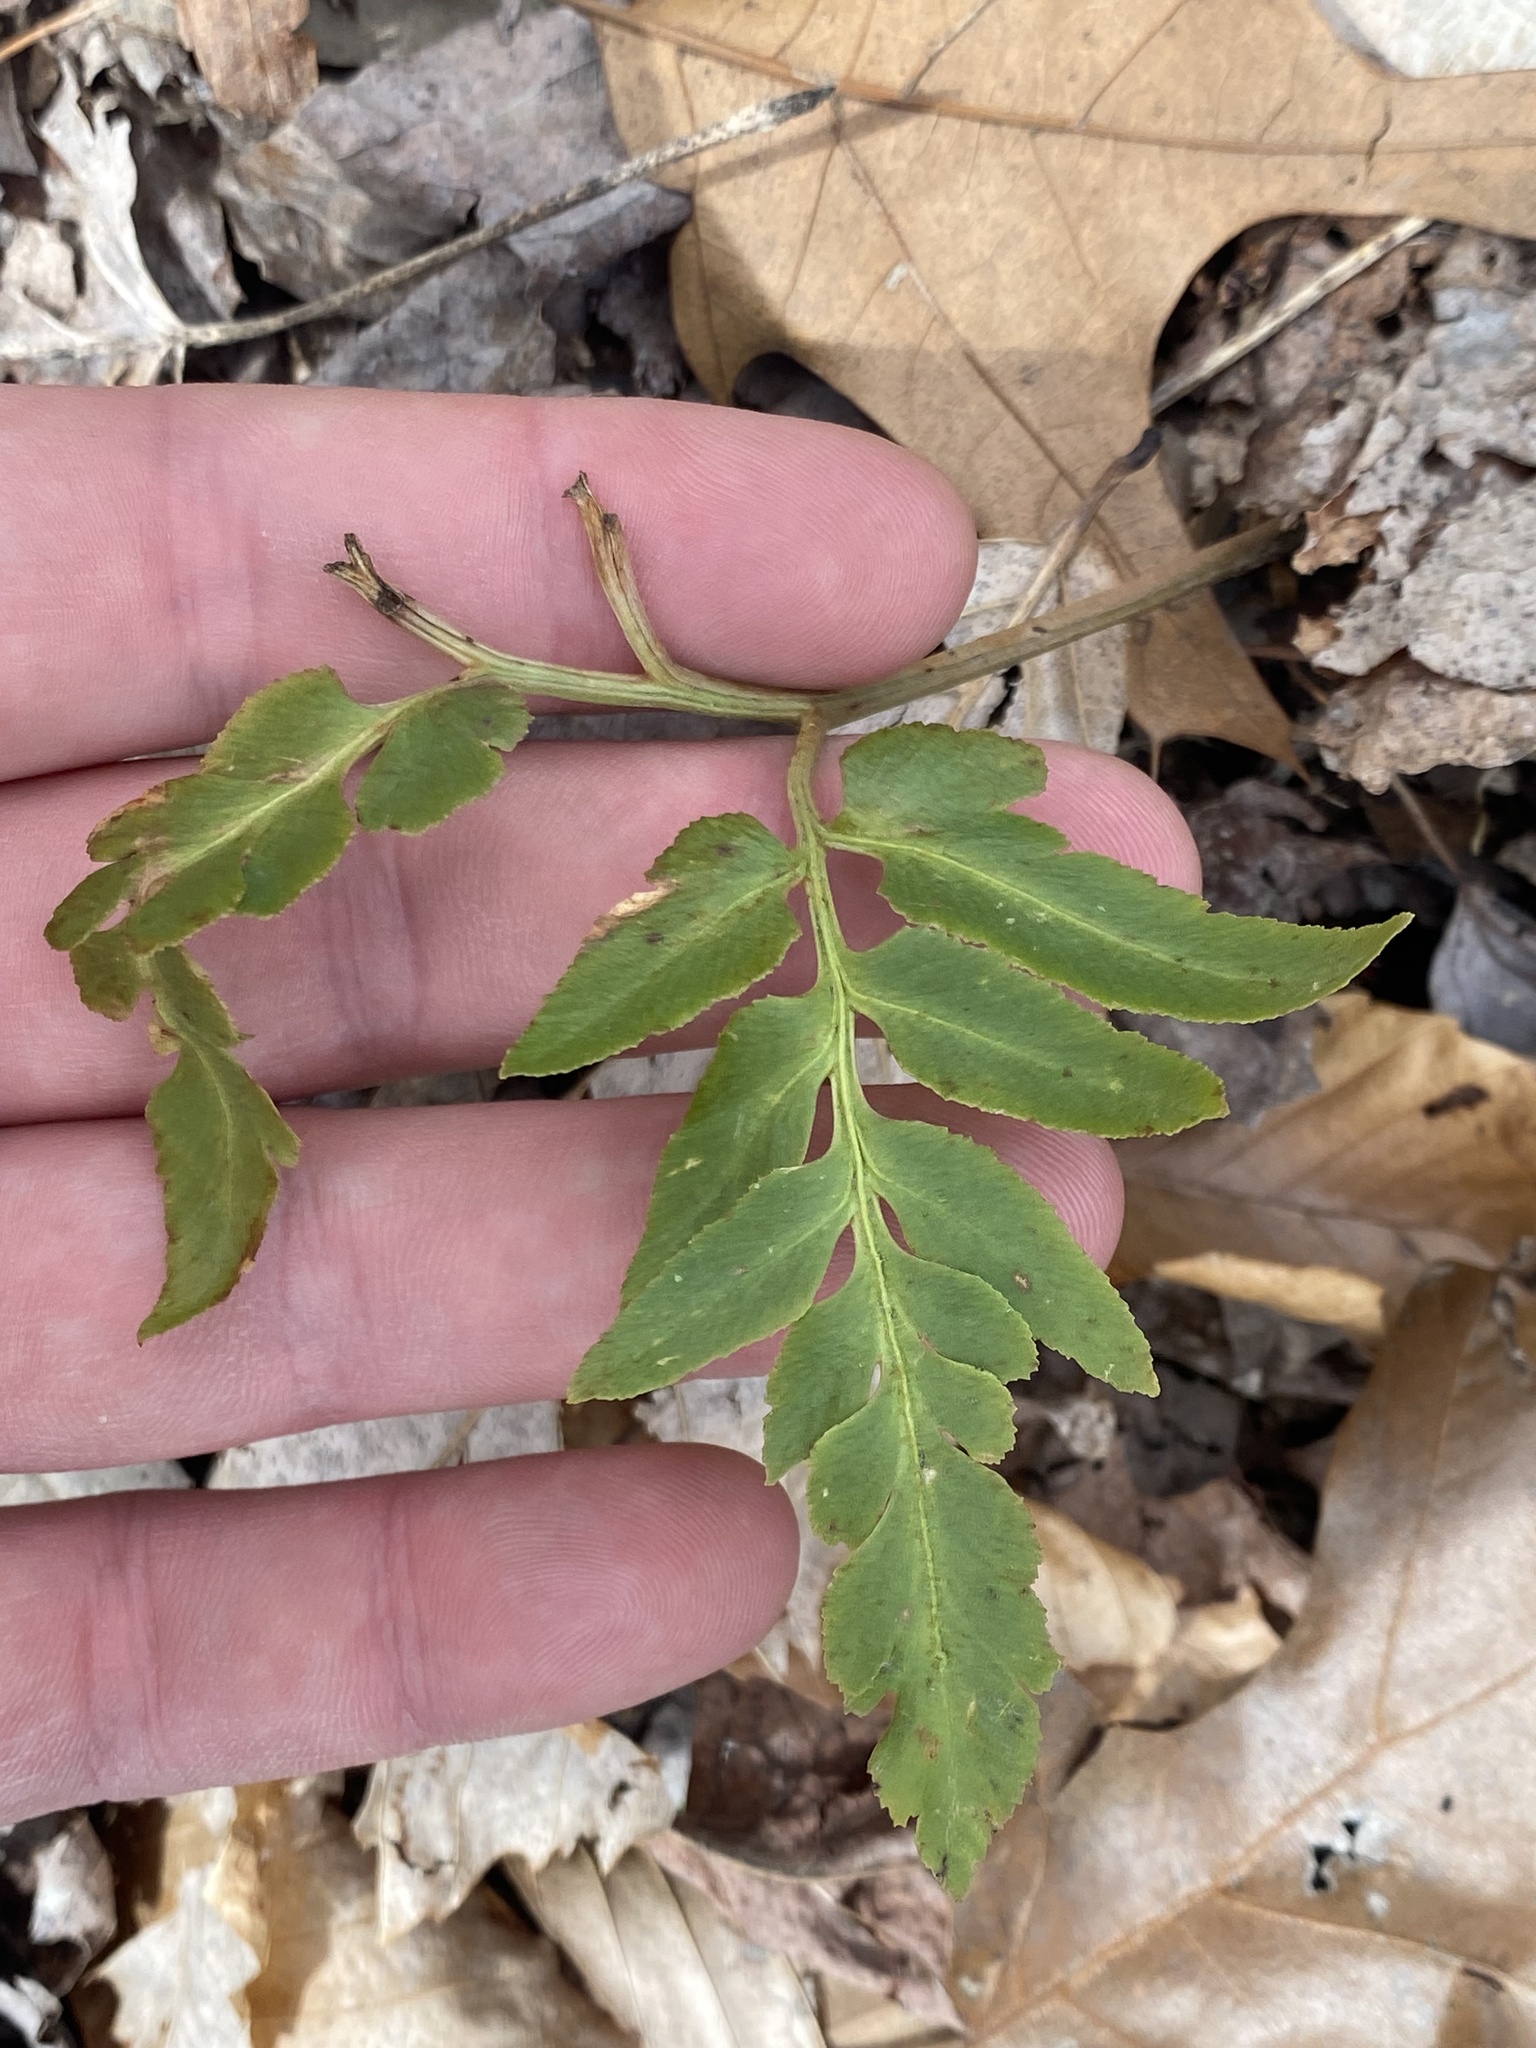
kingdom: Plantae
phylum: Tracheophyta
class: Polypodiopsida
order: Ophioglossales
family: Ophioglossaceae
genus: Sceptridium
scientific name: Sceptridium dissectum
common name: Cut-leaved grapefern
